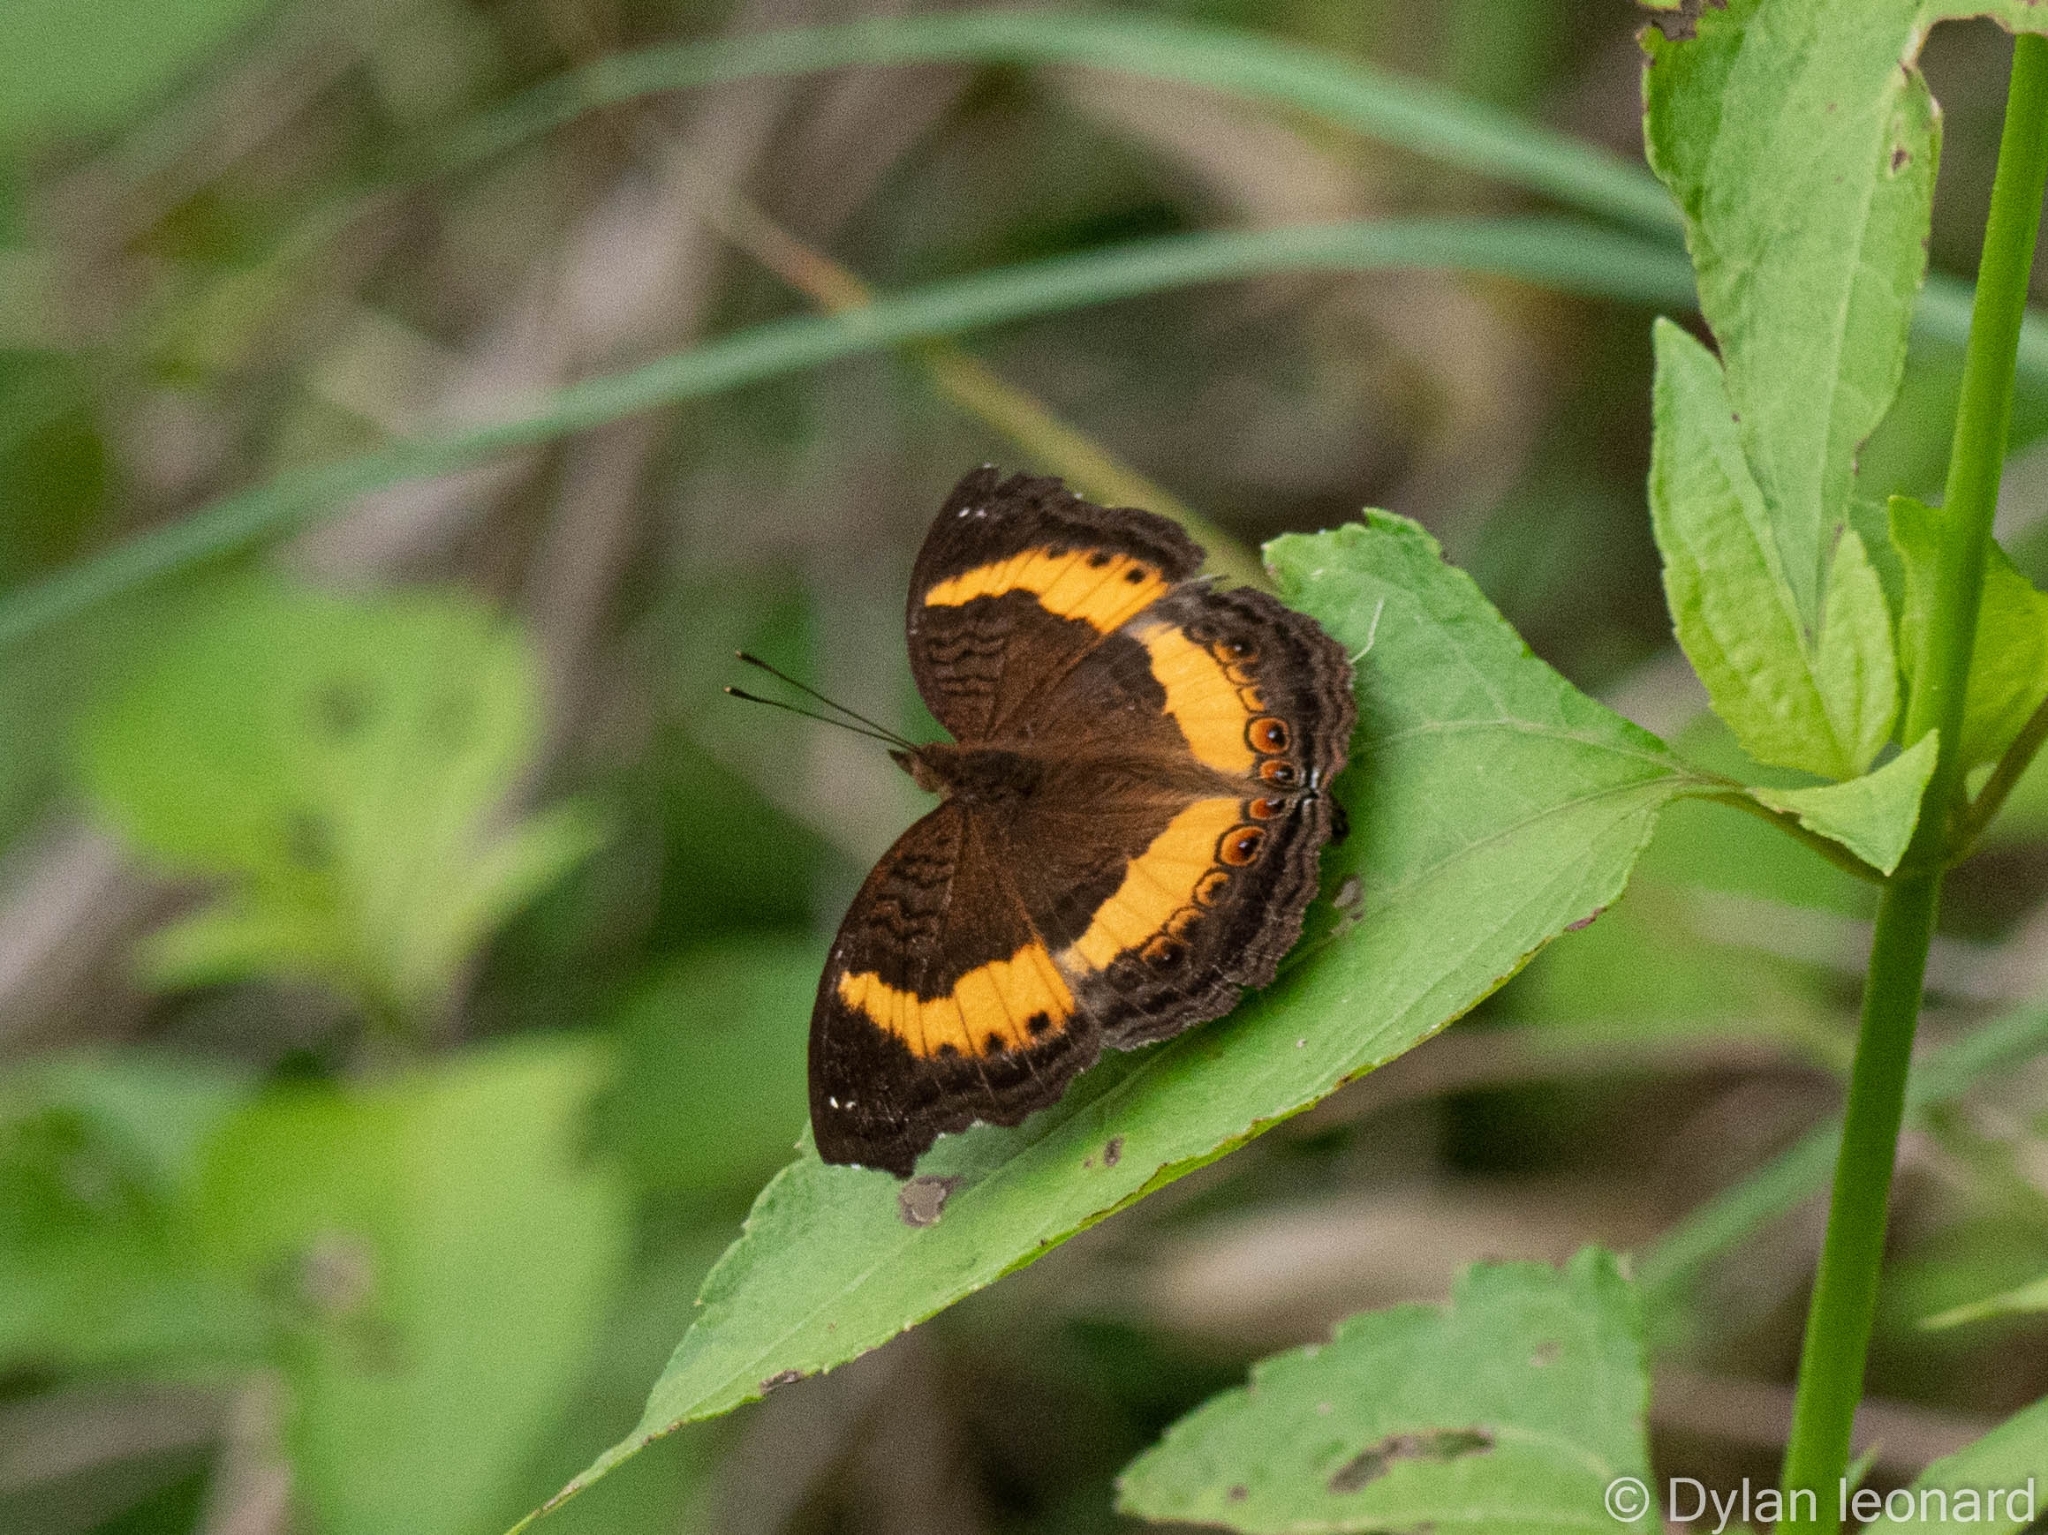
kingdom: Animalia
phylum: Arthropoda
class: Insecta
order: Lepidoptera
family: Nymphalidae
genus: Junonia
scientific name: Junonia terea
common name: Soldier pansy
